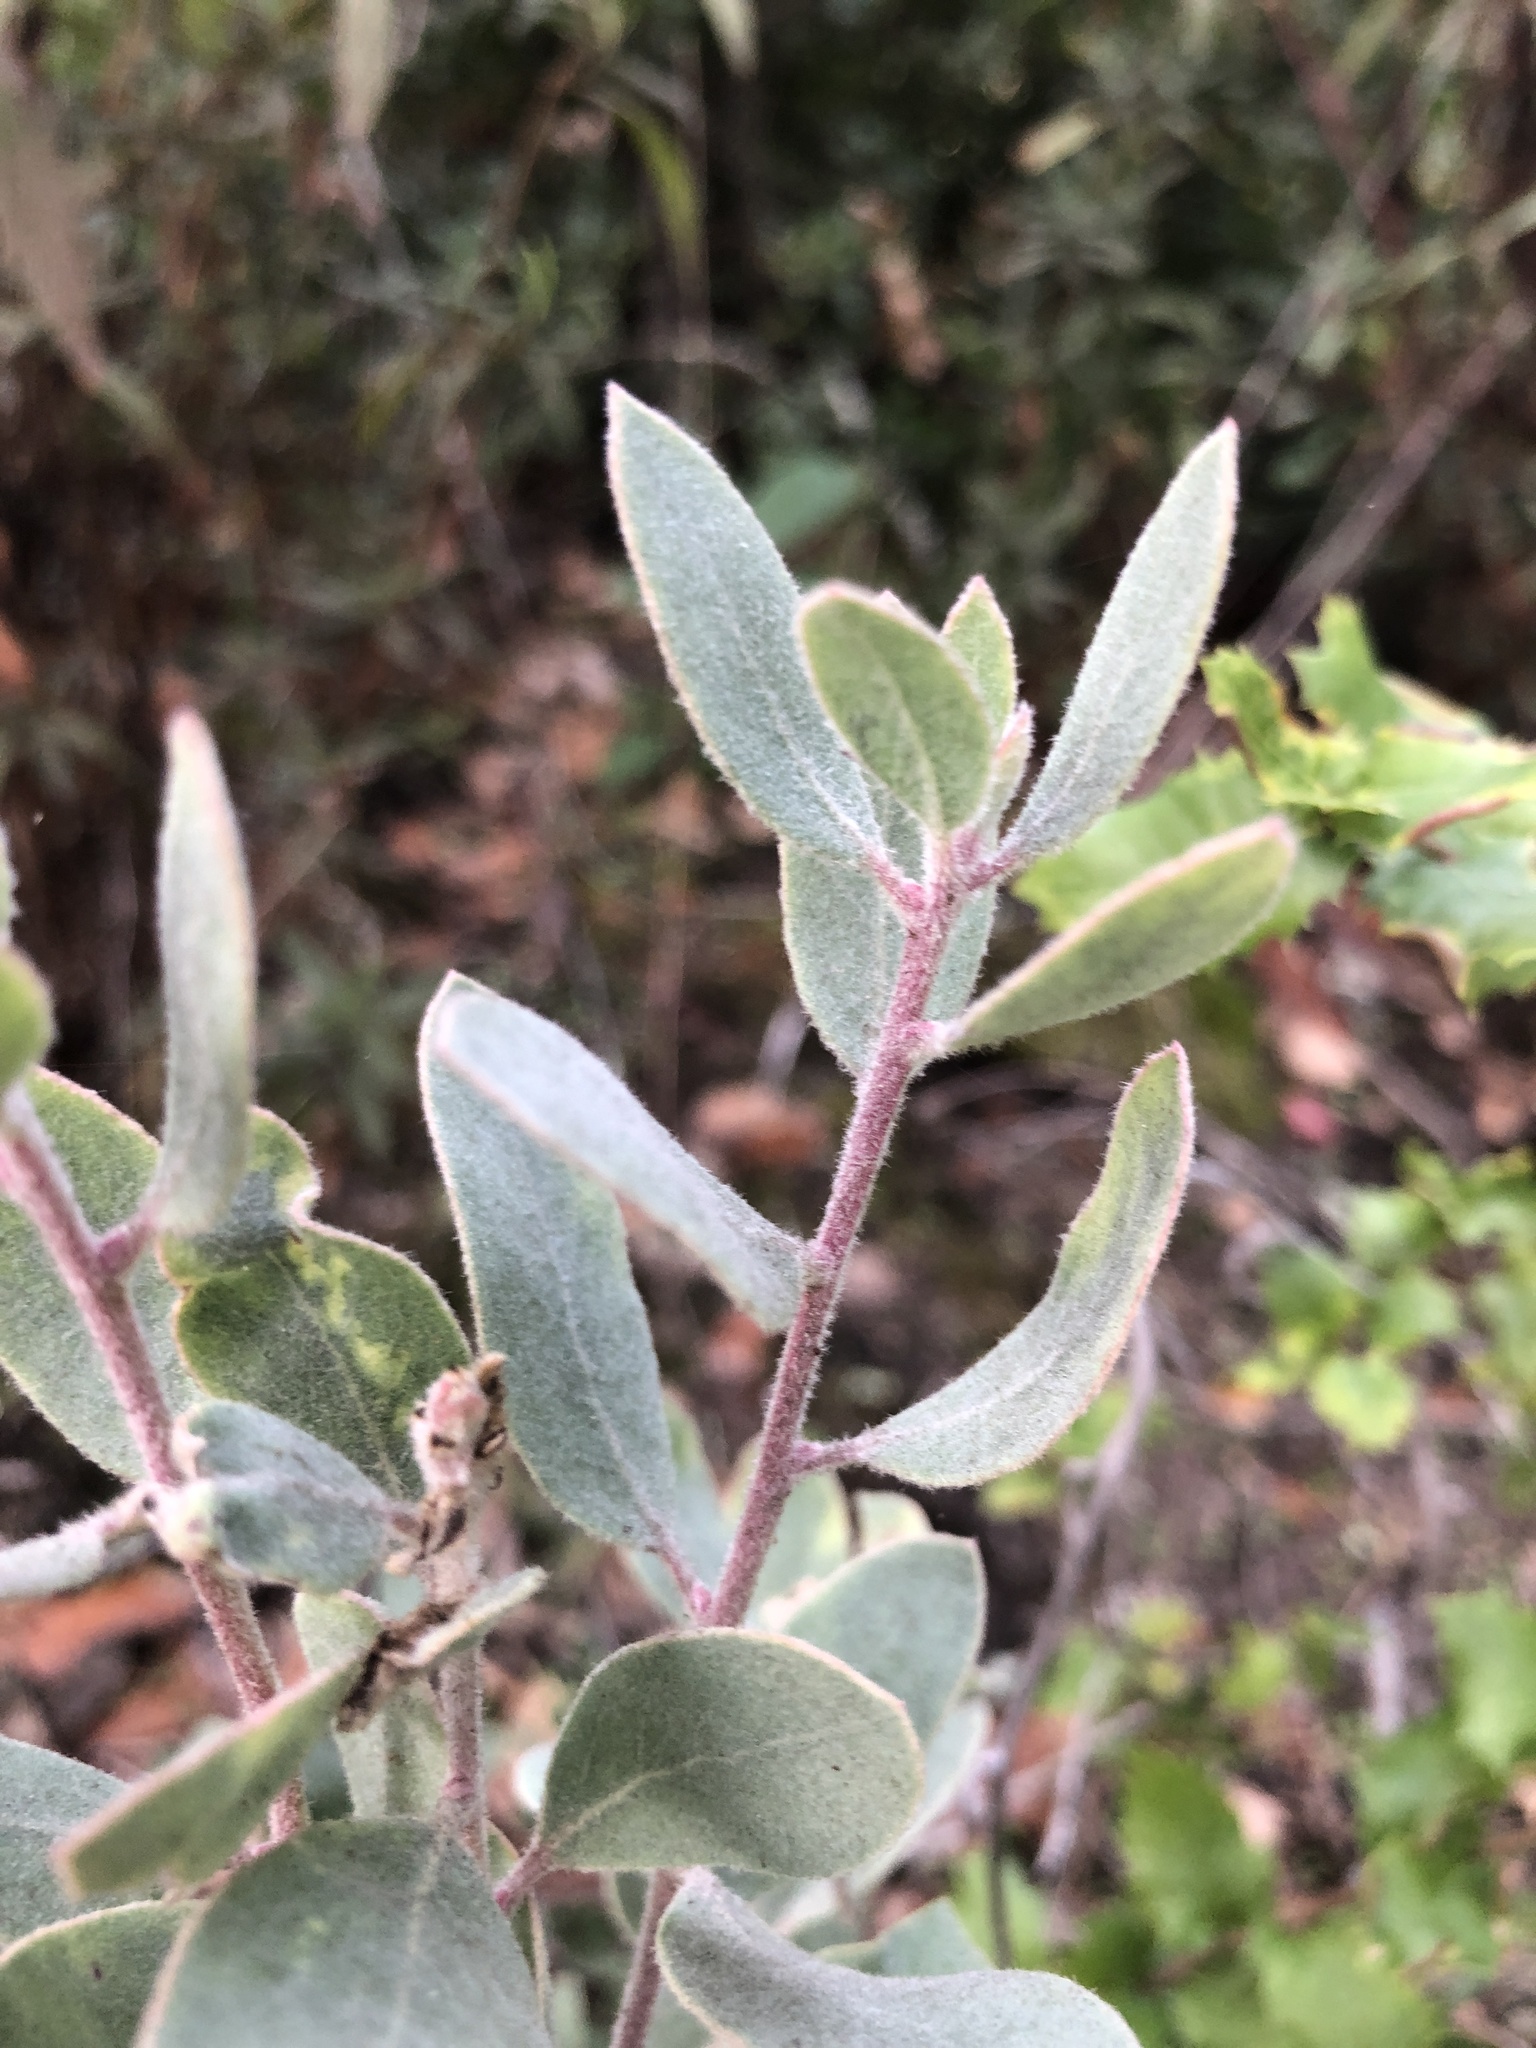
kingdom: Plantae
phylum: Tracheophyta
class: Magnoliopsida
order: Ericales
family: Ericaceae
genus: Arctostaphylos
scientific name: Arctostaphylos silvicola
